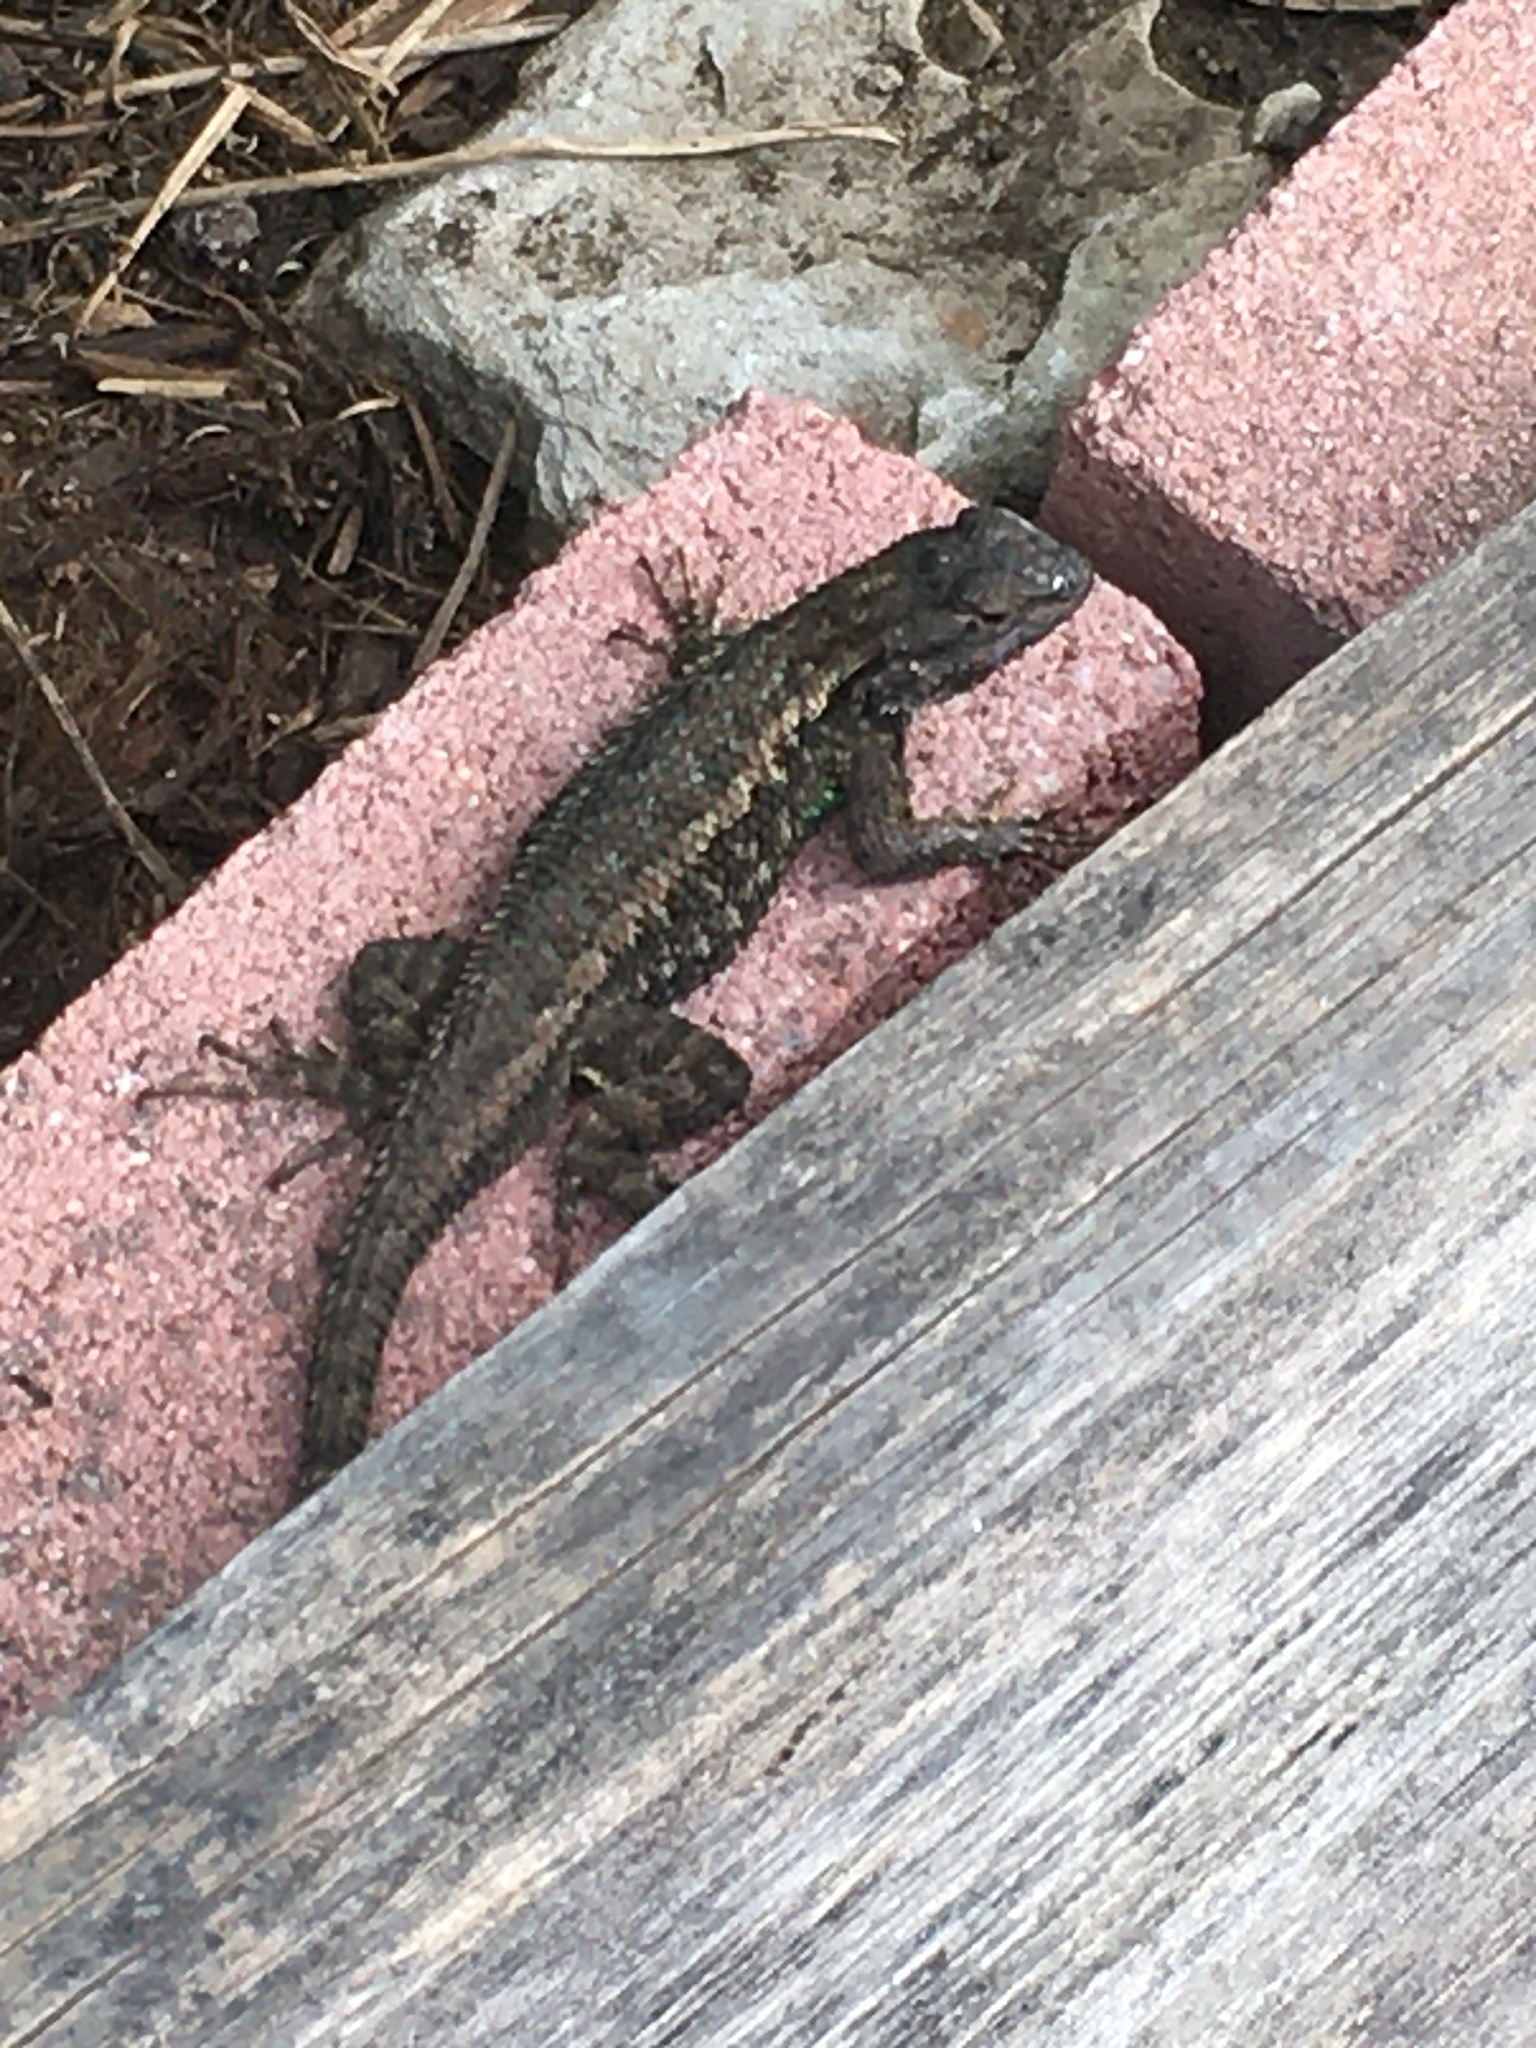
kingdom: Animalia
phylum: Chordata
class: Squamata
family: Phrynosomatidae
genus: Sceloporus
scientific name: Sceloporus occidentalis
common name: Western fence lizard
